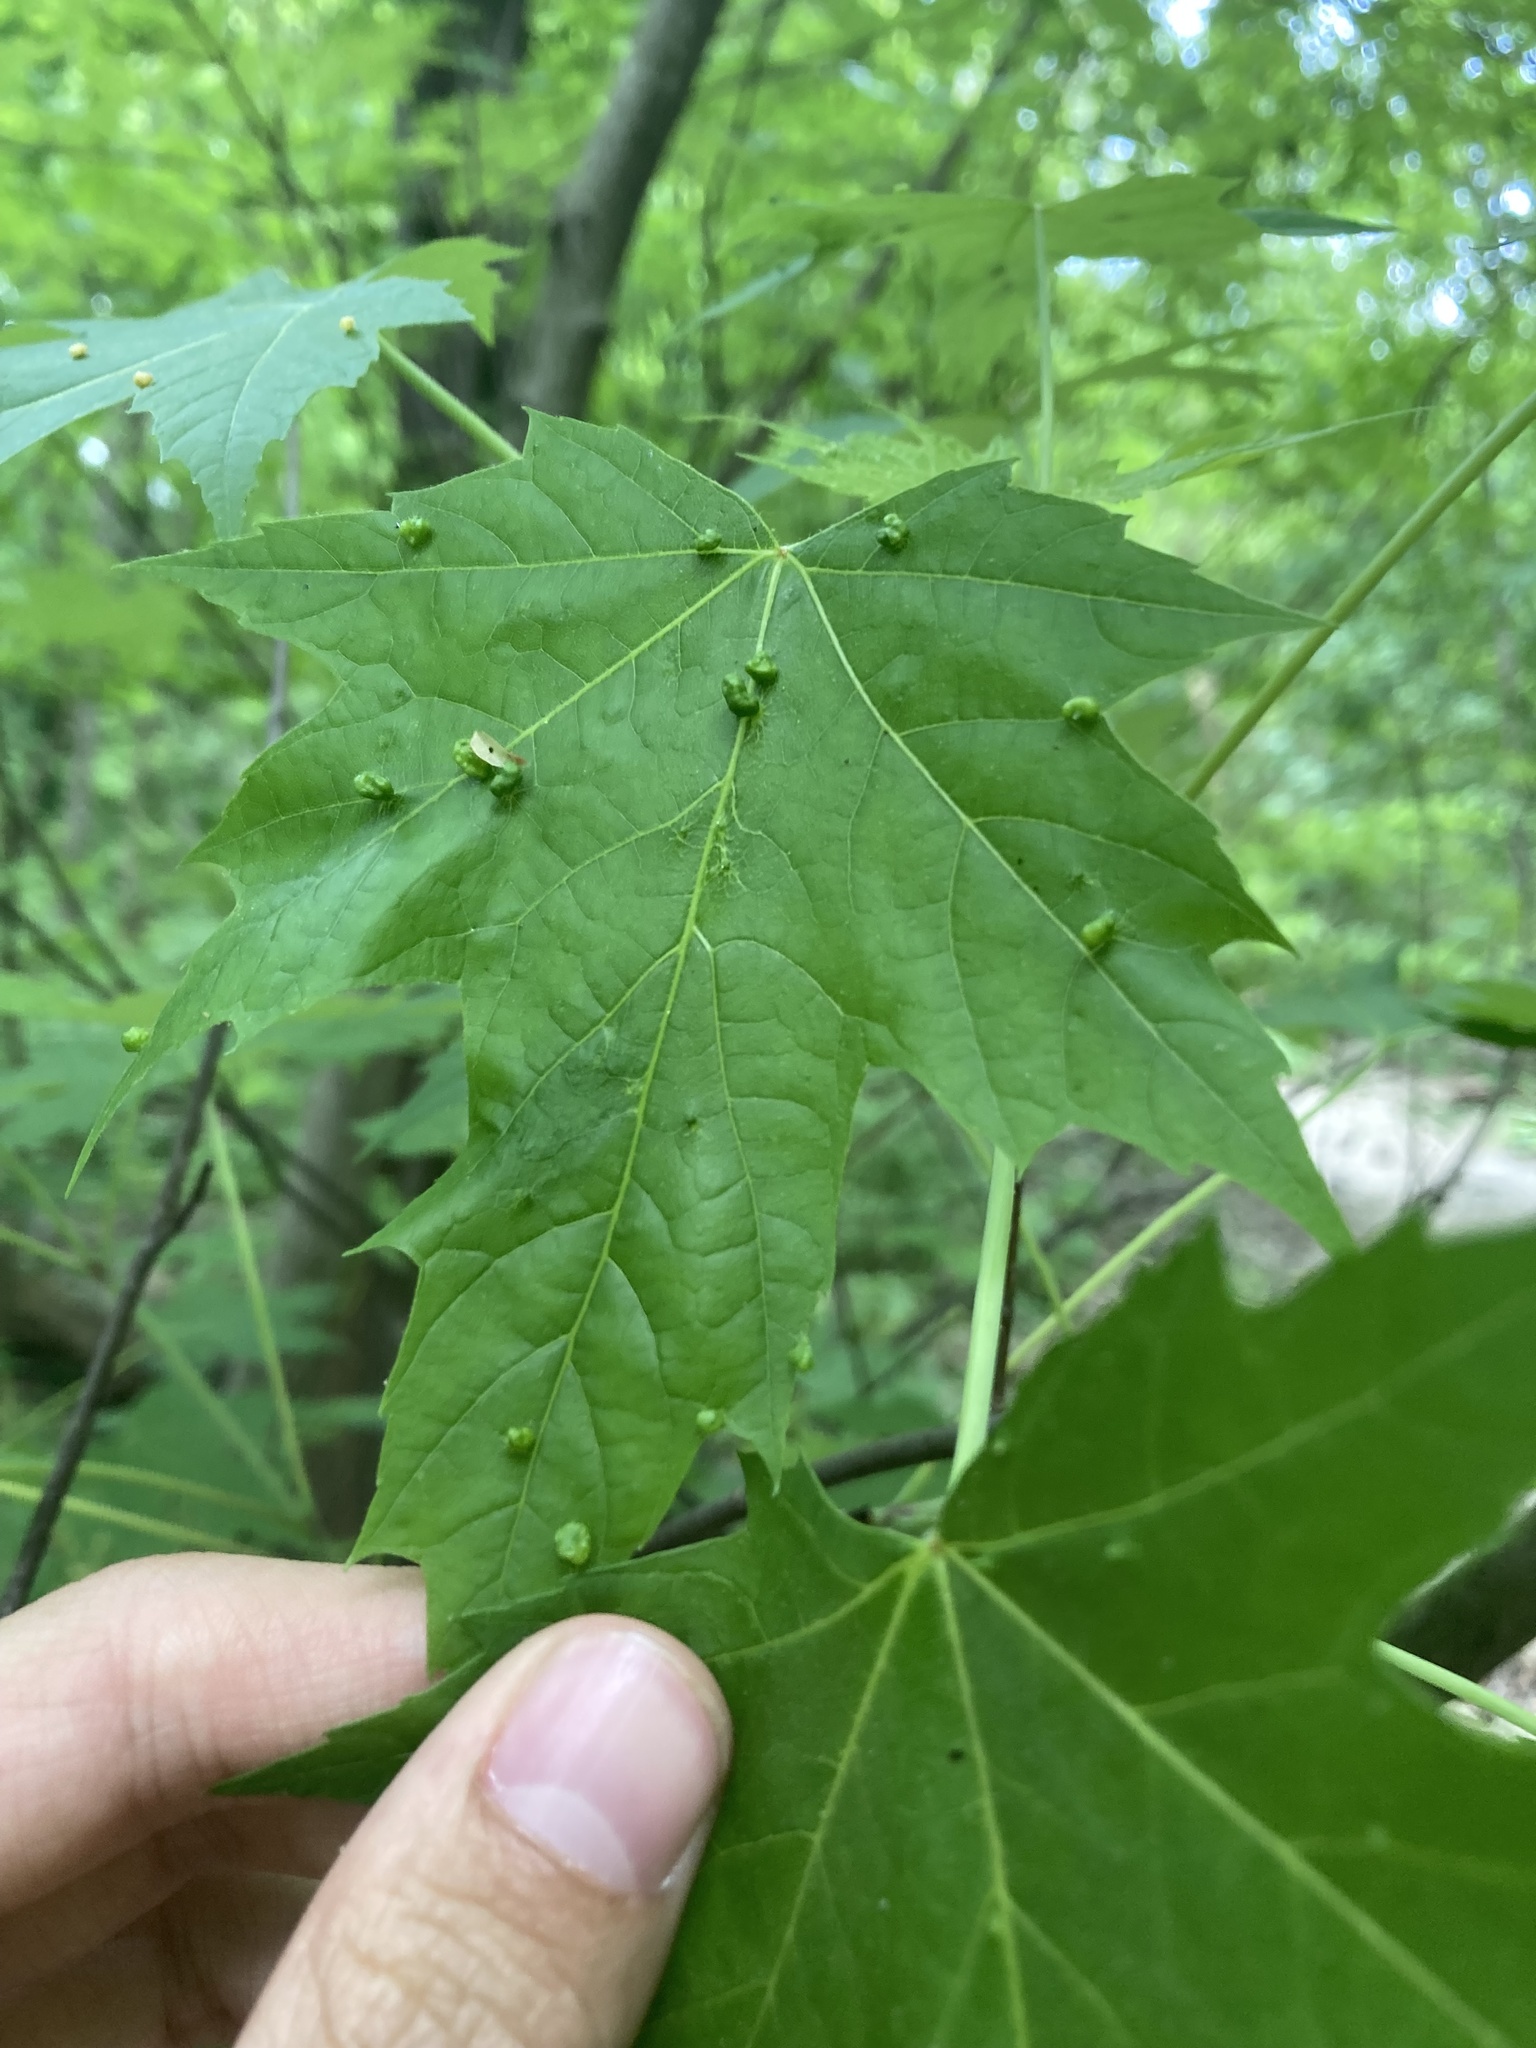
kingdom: Animalia
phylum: Arthropoda
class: Arachnida
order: Trombidiformes
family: Eriophyidae
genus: Vasates
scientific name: Vasates quadripedes
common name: Maple bladder gall mite
